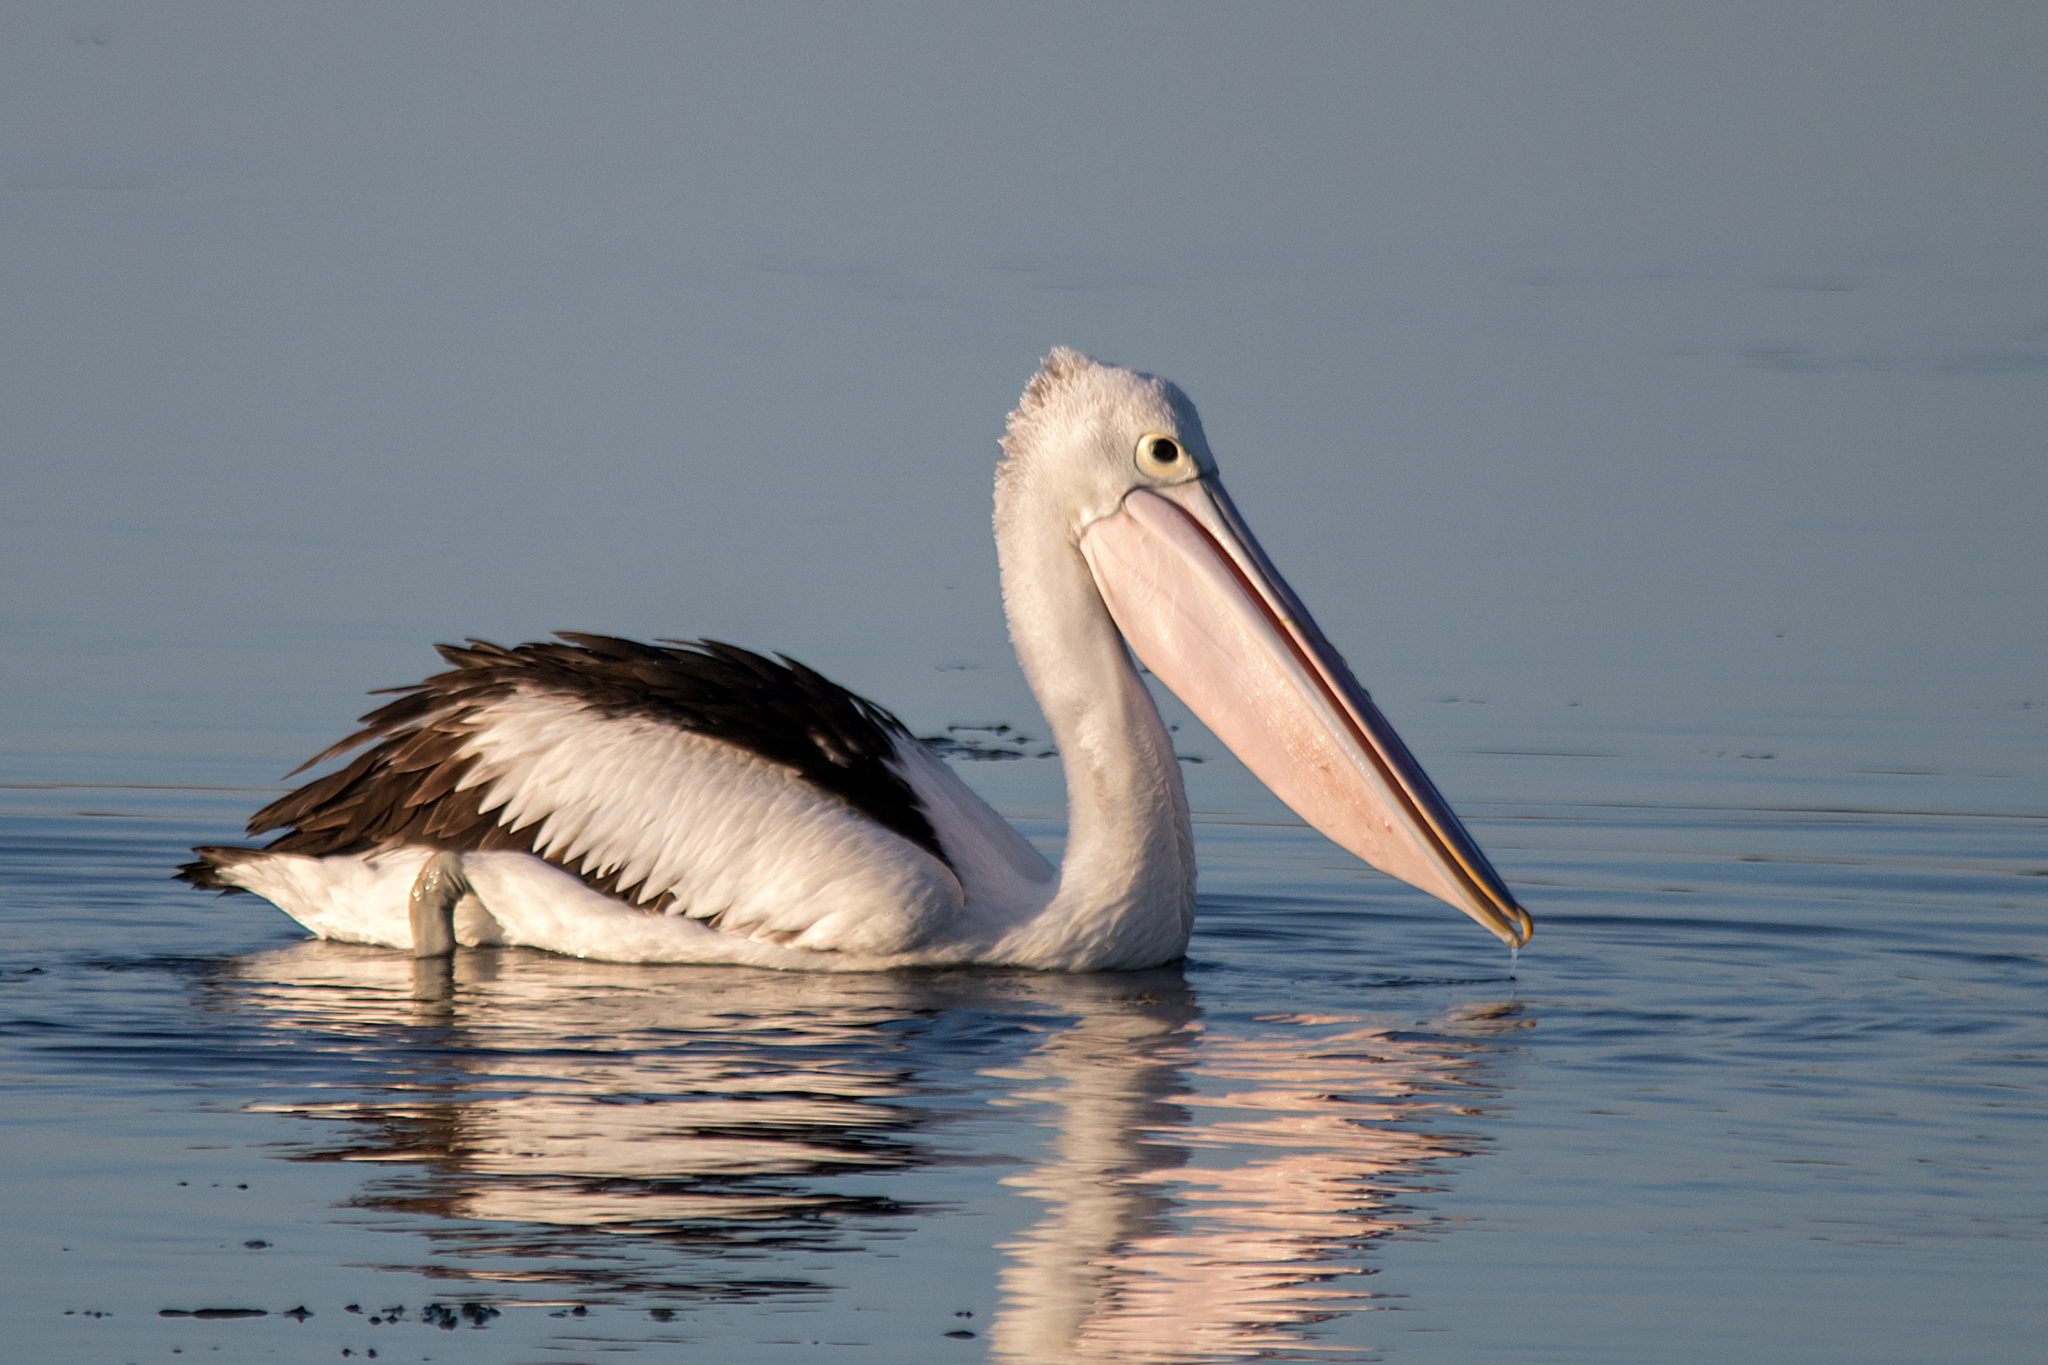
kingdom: Animalia
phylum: Chordata
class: Aves
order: Pelecaniformes
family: Pelecanidae
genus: Pelecanus
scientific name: Pelecanus conspicillatus
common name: Australian pelican
